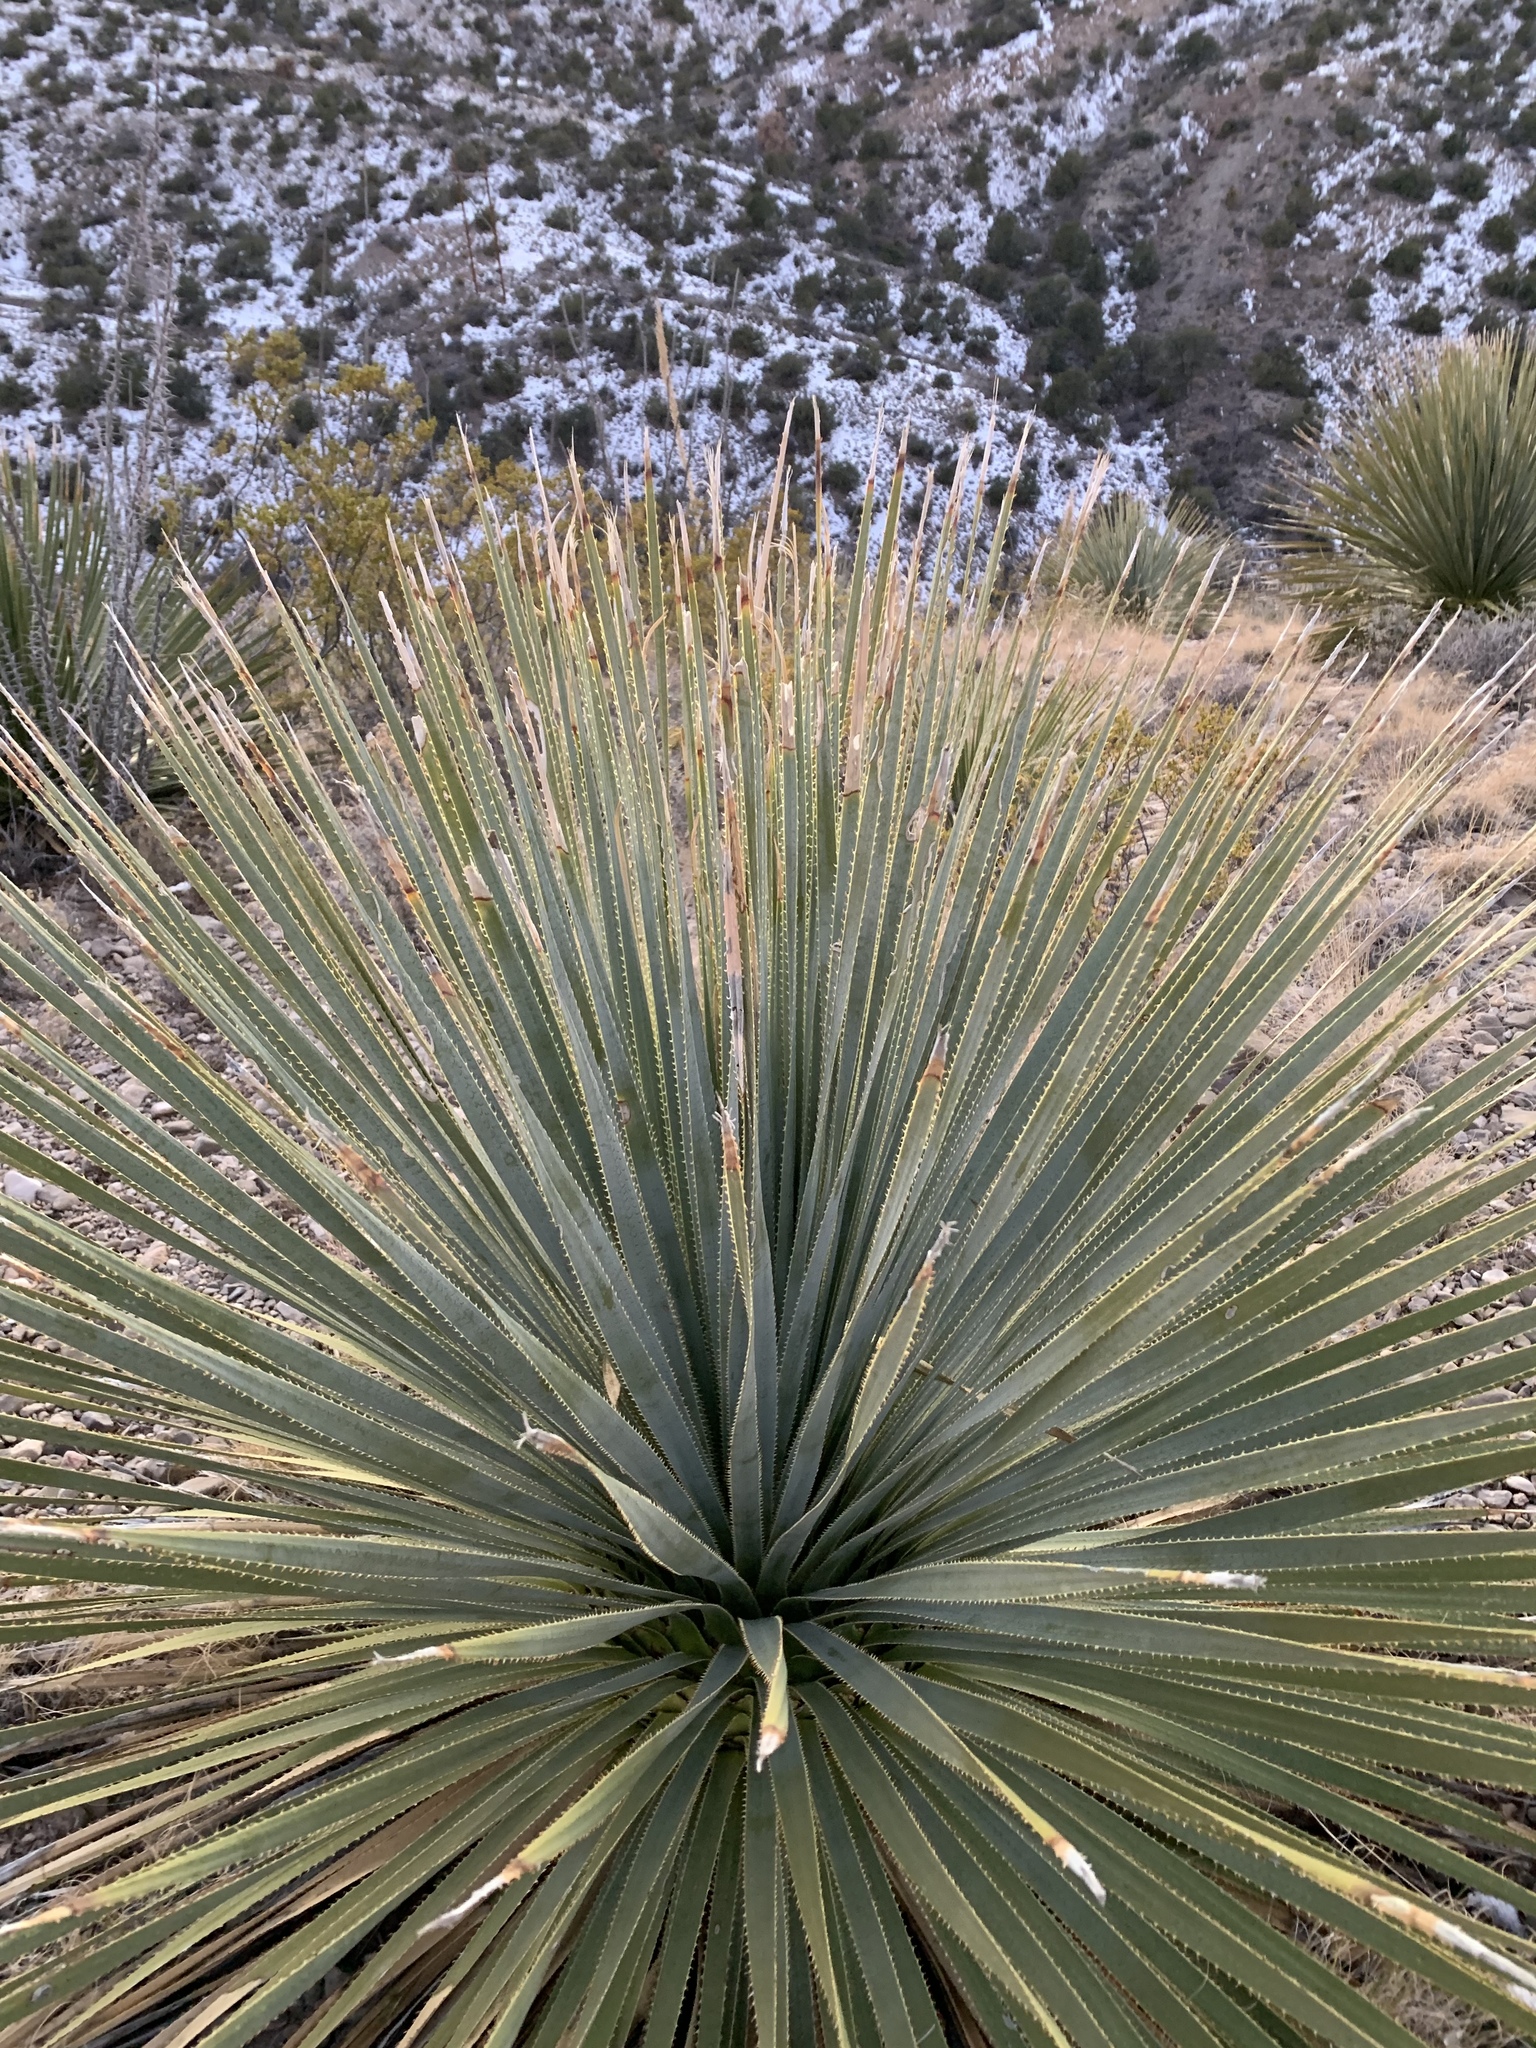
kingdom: Plantae
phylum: Tracheophyta
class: Liliopsida
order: Asparagales
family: Asparagaceae
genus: Dasylirion
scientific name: Dasylirion wheeleri
